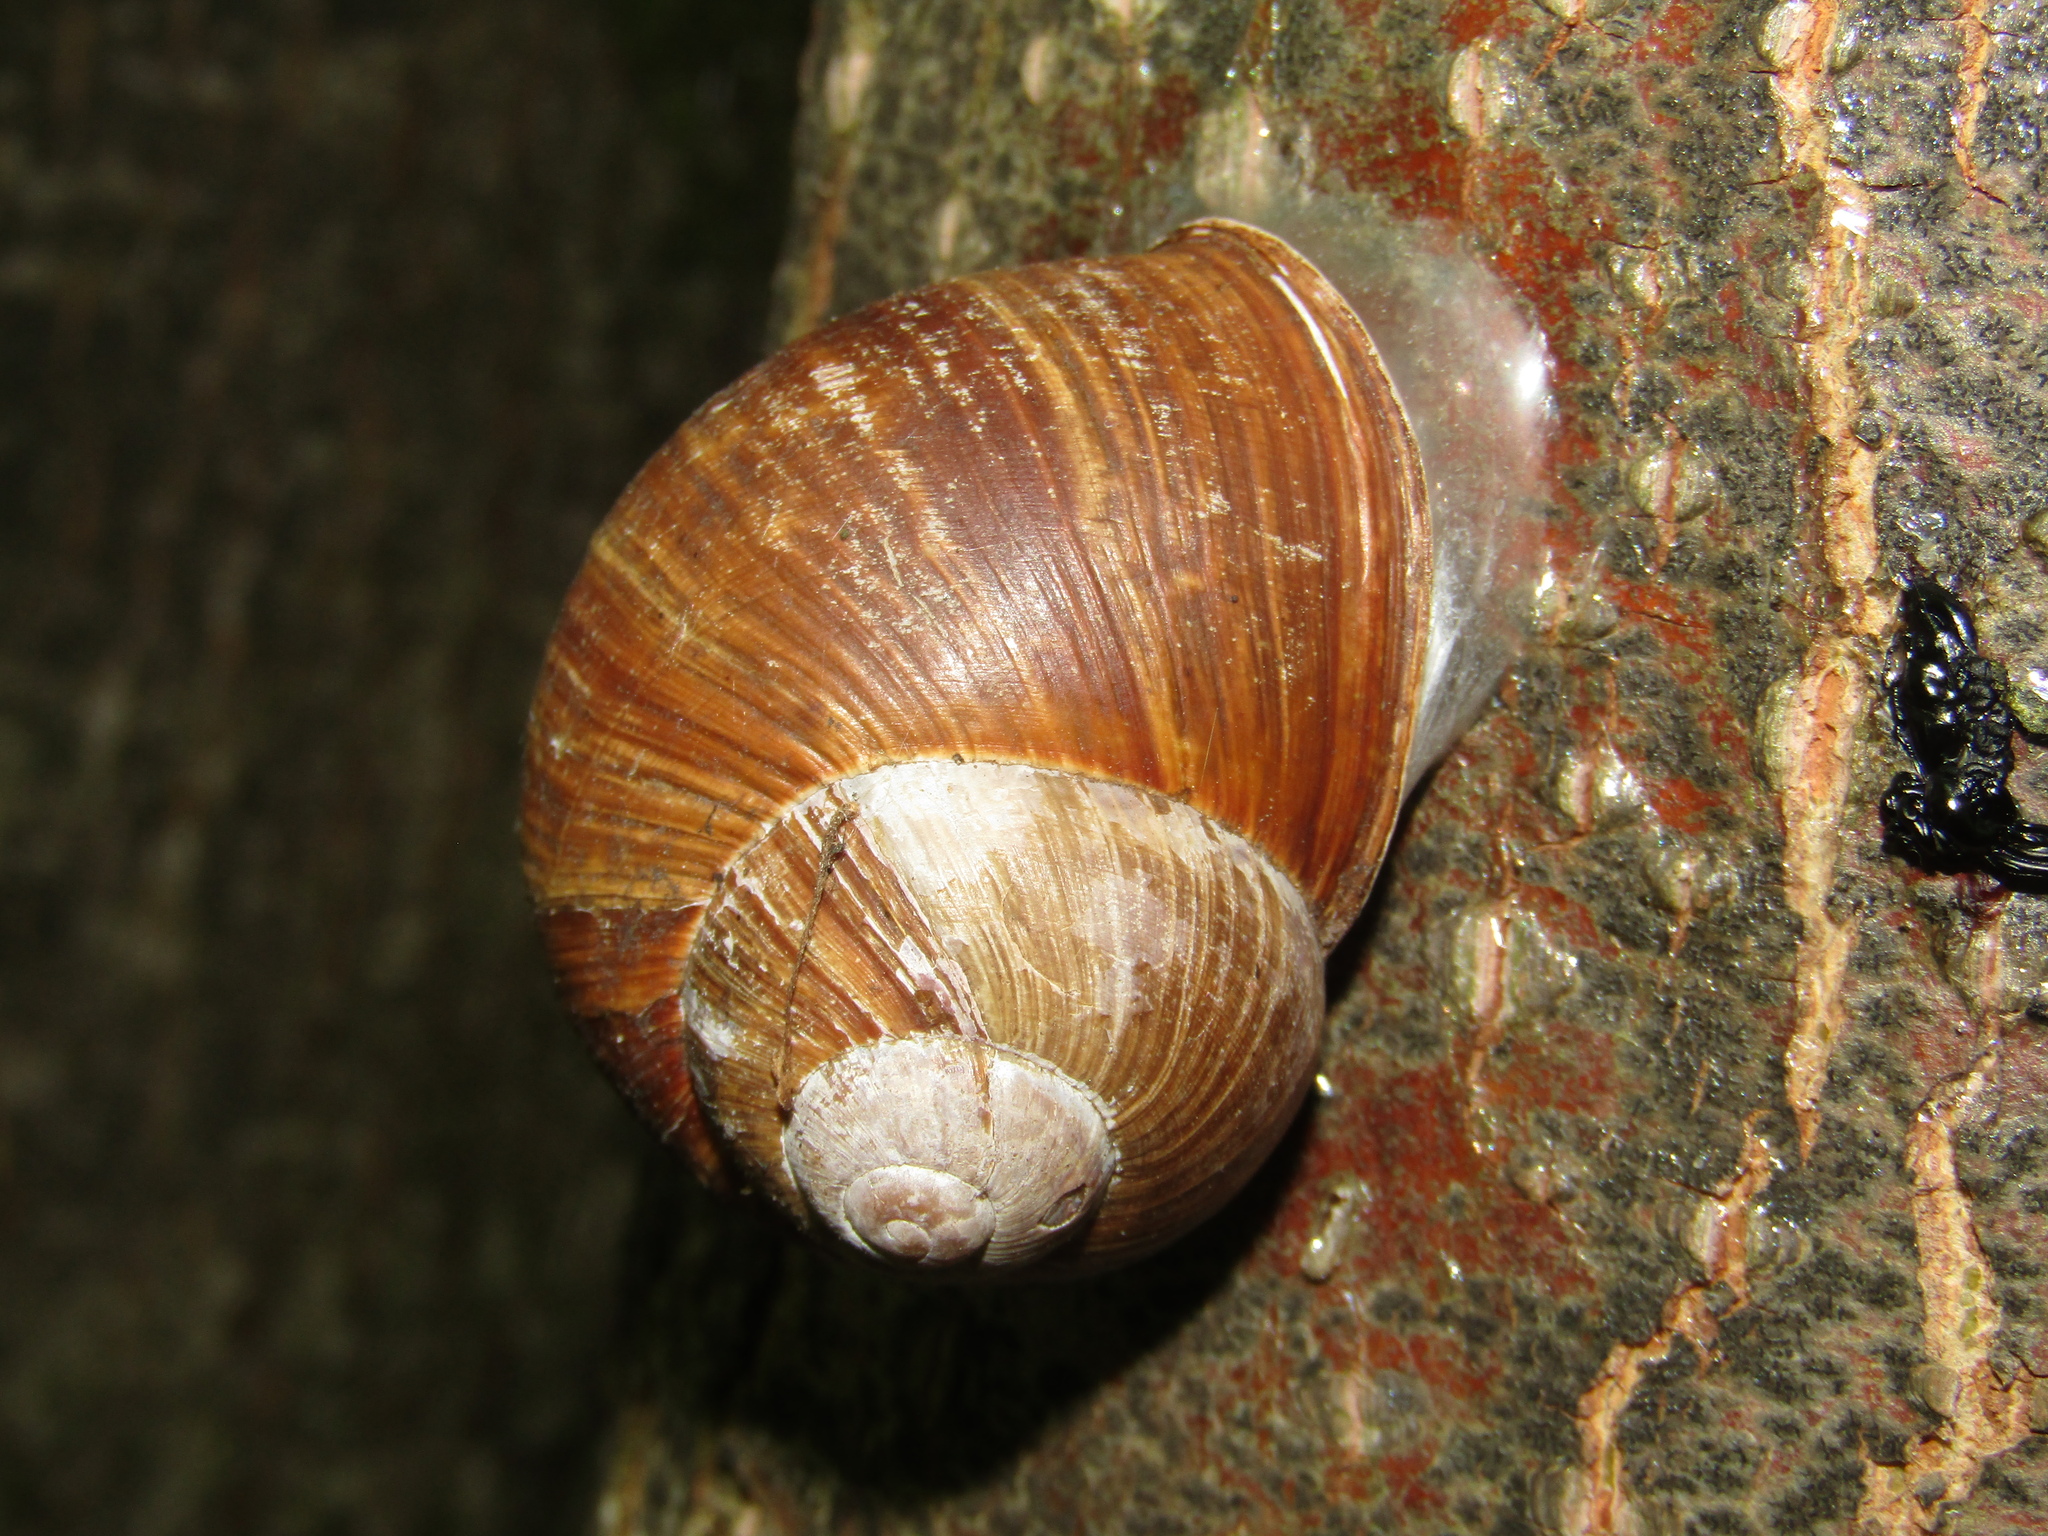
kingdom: Animalia
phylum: Mollusca
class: Gastropoda
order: Stylommatophora
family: Helicidae
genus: Helix
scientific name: Helix pomatia
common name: Roman snail
